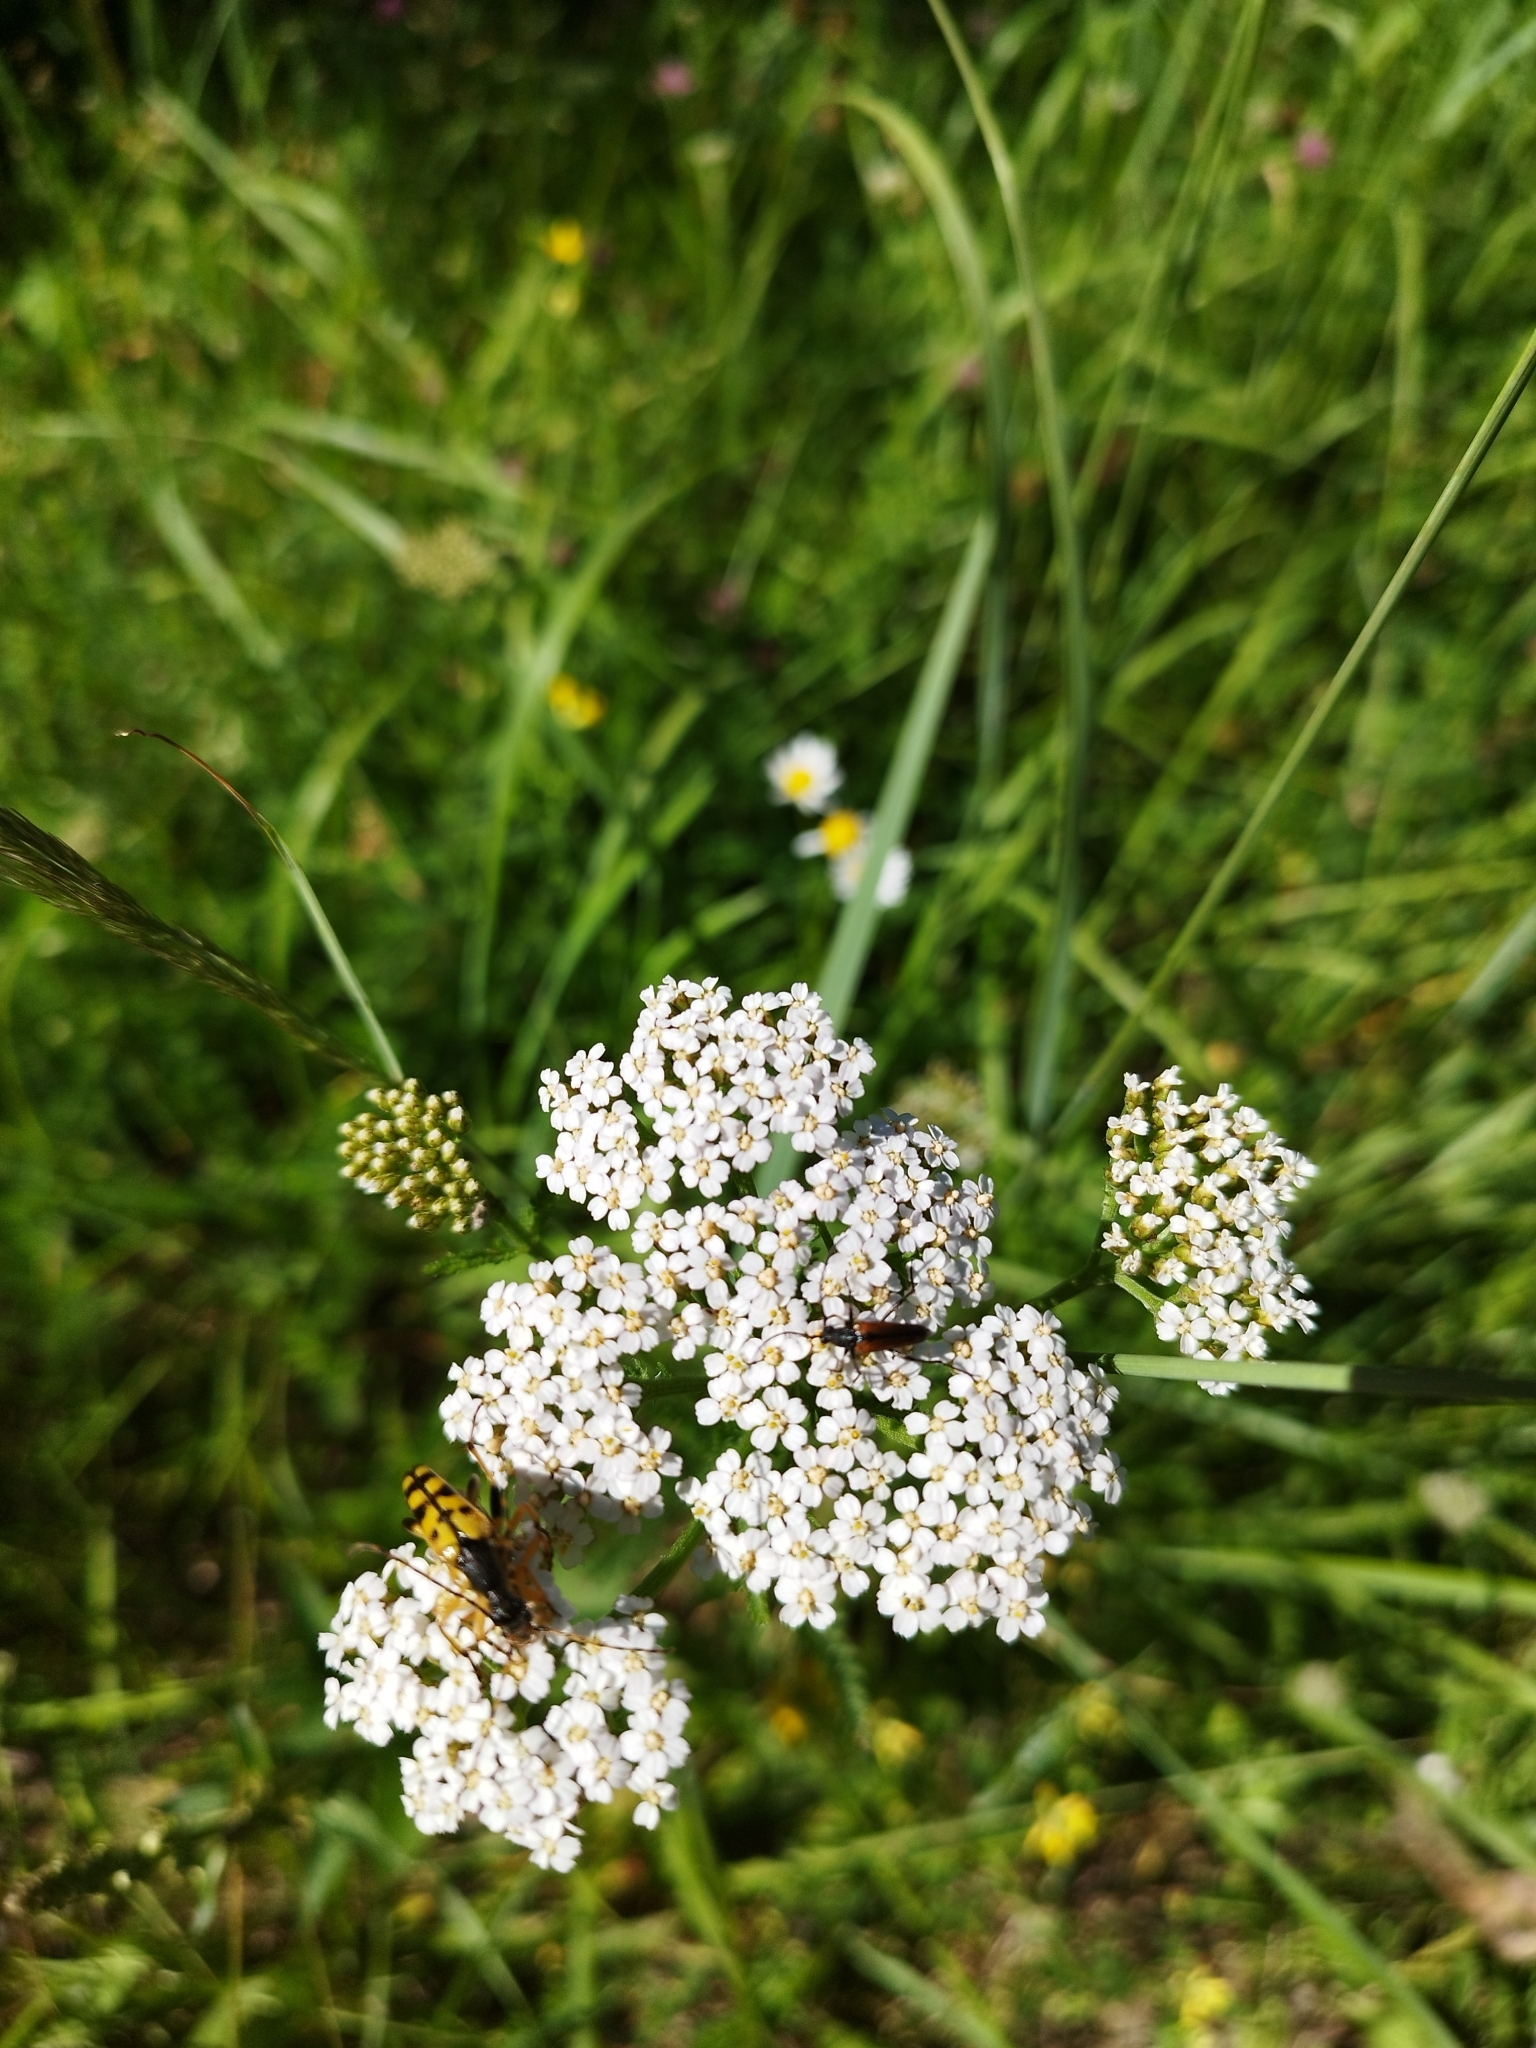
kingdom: Animalia
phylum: Arthropoda
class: Insecta
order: Coleoptera
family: Cerambycidae
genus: Rutpela
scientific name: Rutpela maculata
